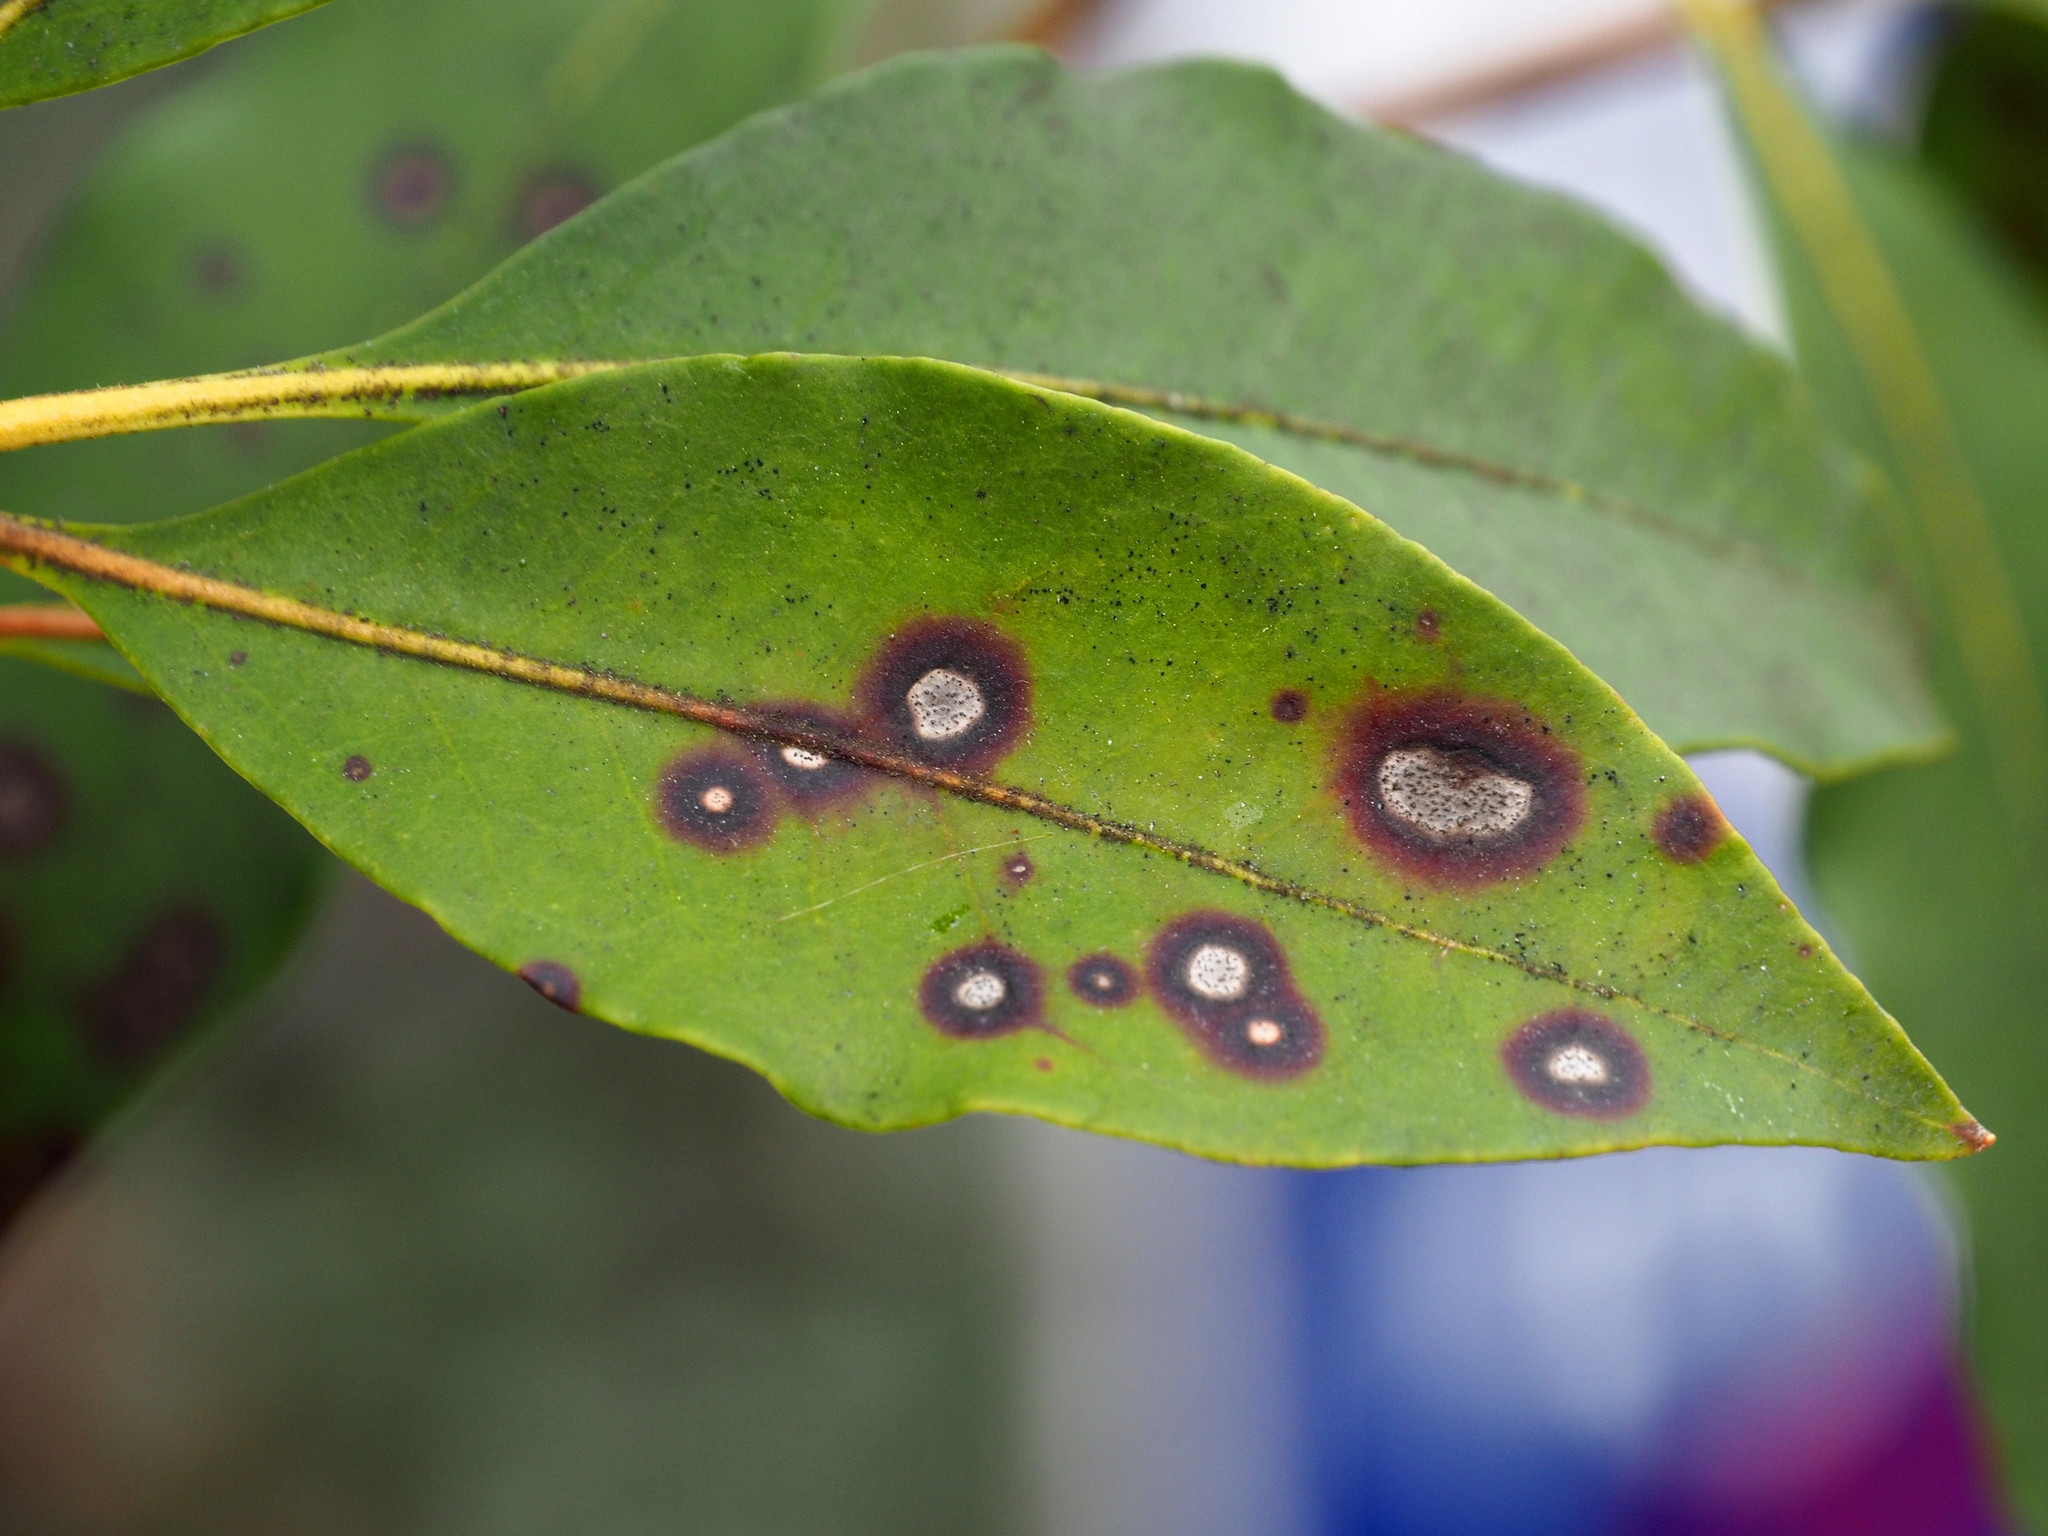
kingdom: Fungi
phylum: Ascomycota
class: Dothideomycetes
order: Mycosphaerellales
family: Mycosphaerellaceae
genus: Mycosphaerella
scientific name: Mycosphaerella colorata
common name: Mountain laurel leaf spot
